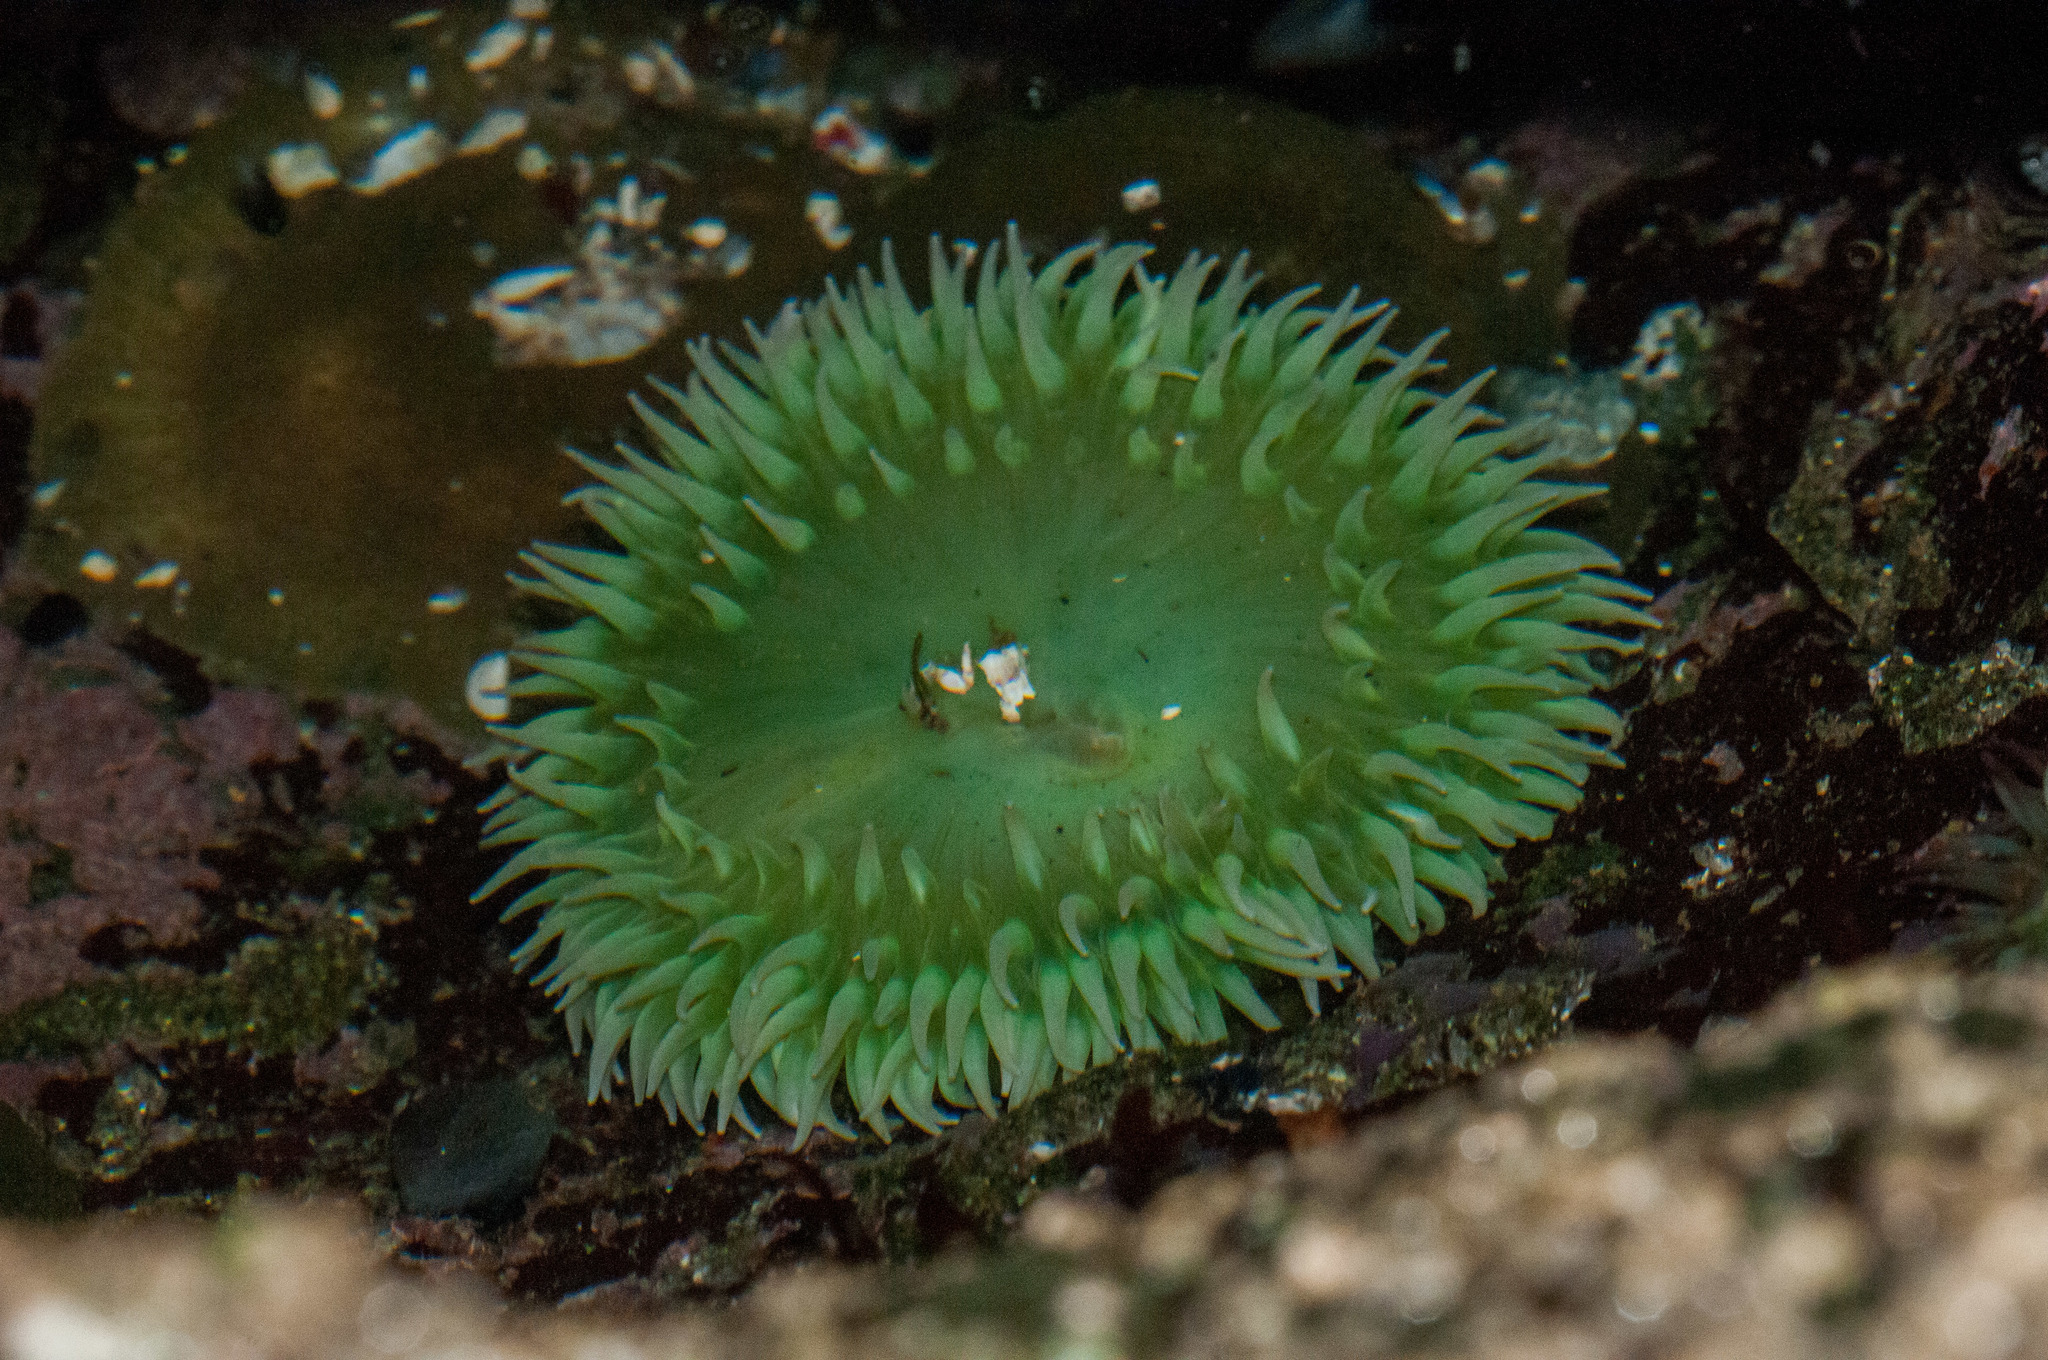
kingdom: Animalia
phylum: Cnidaria
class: Anthozoa
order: Actiniaria
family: Actiniidae
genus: Anthopleura
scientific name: Anthopleura xanthogrammica
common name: Giant green anemone
